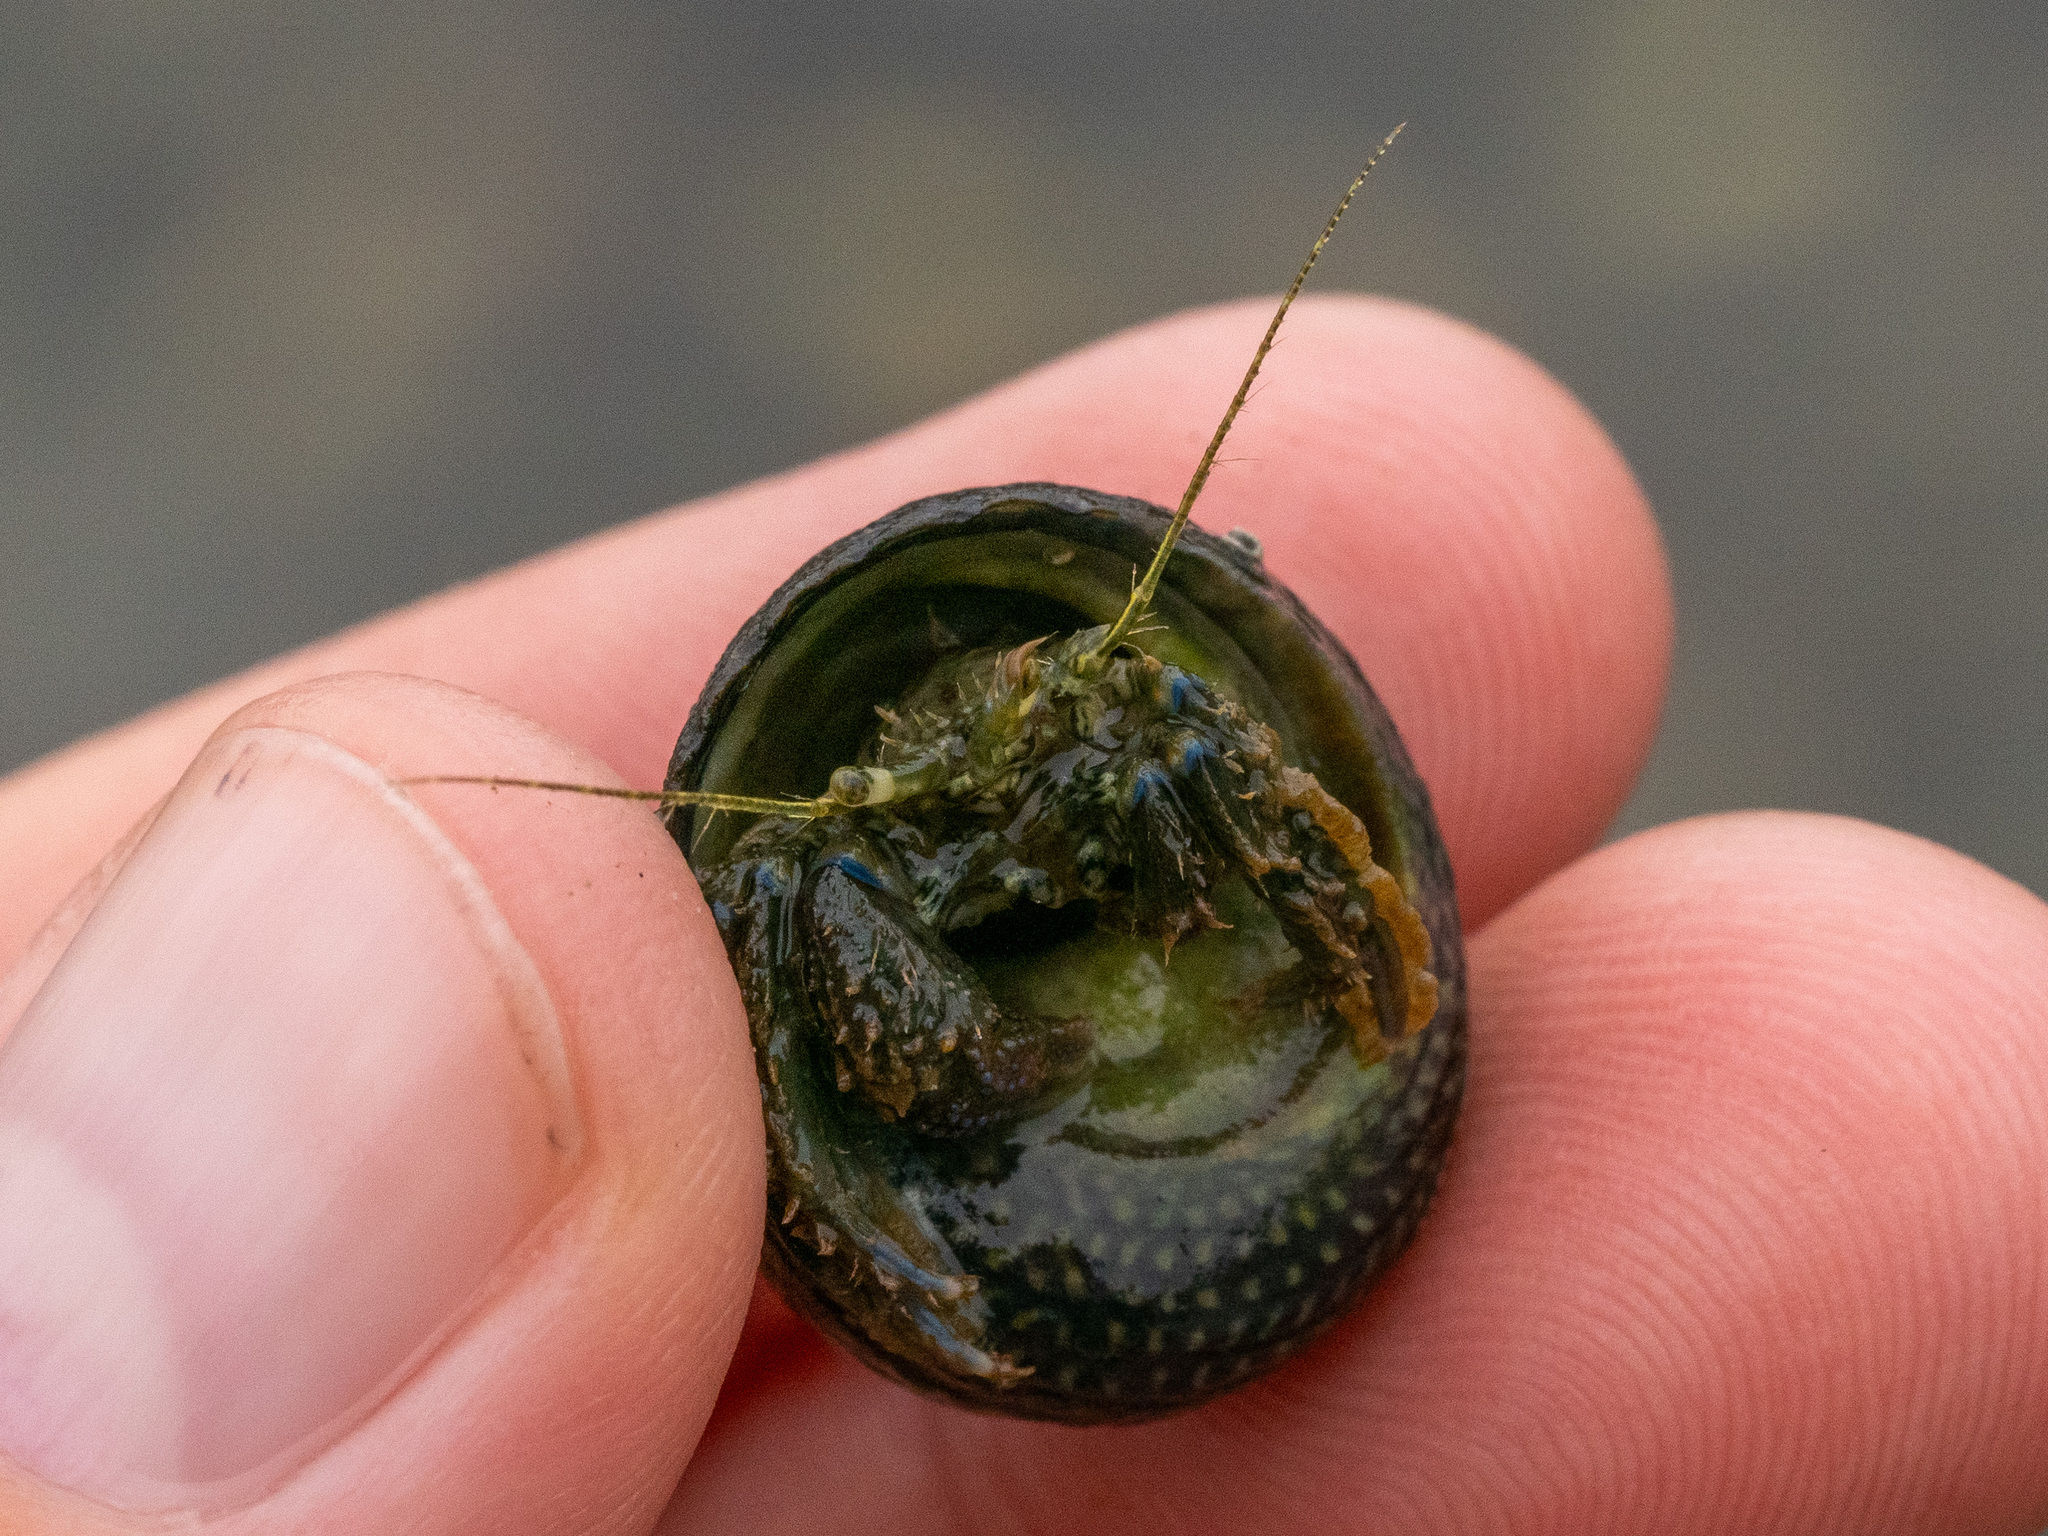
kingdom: Animalia
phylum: Arthropoda
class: Malacostraca
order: Decapoda
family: Paguridae
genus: Pagurus
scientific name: Pagurus novizealandiae
